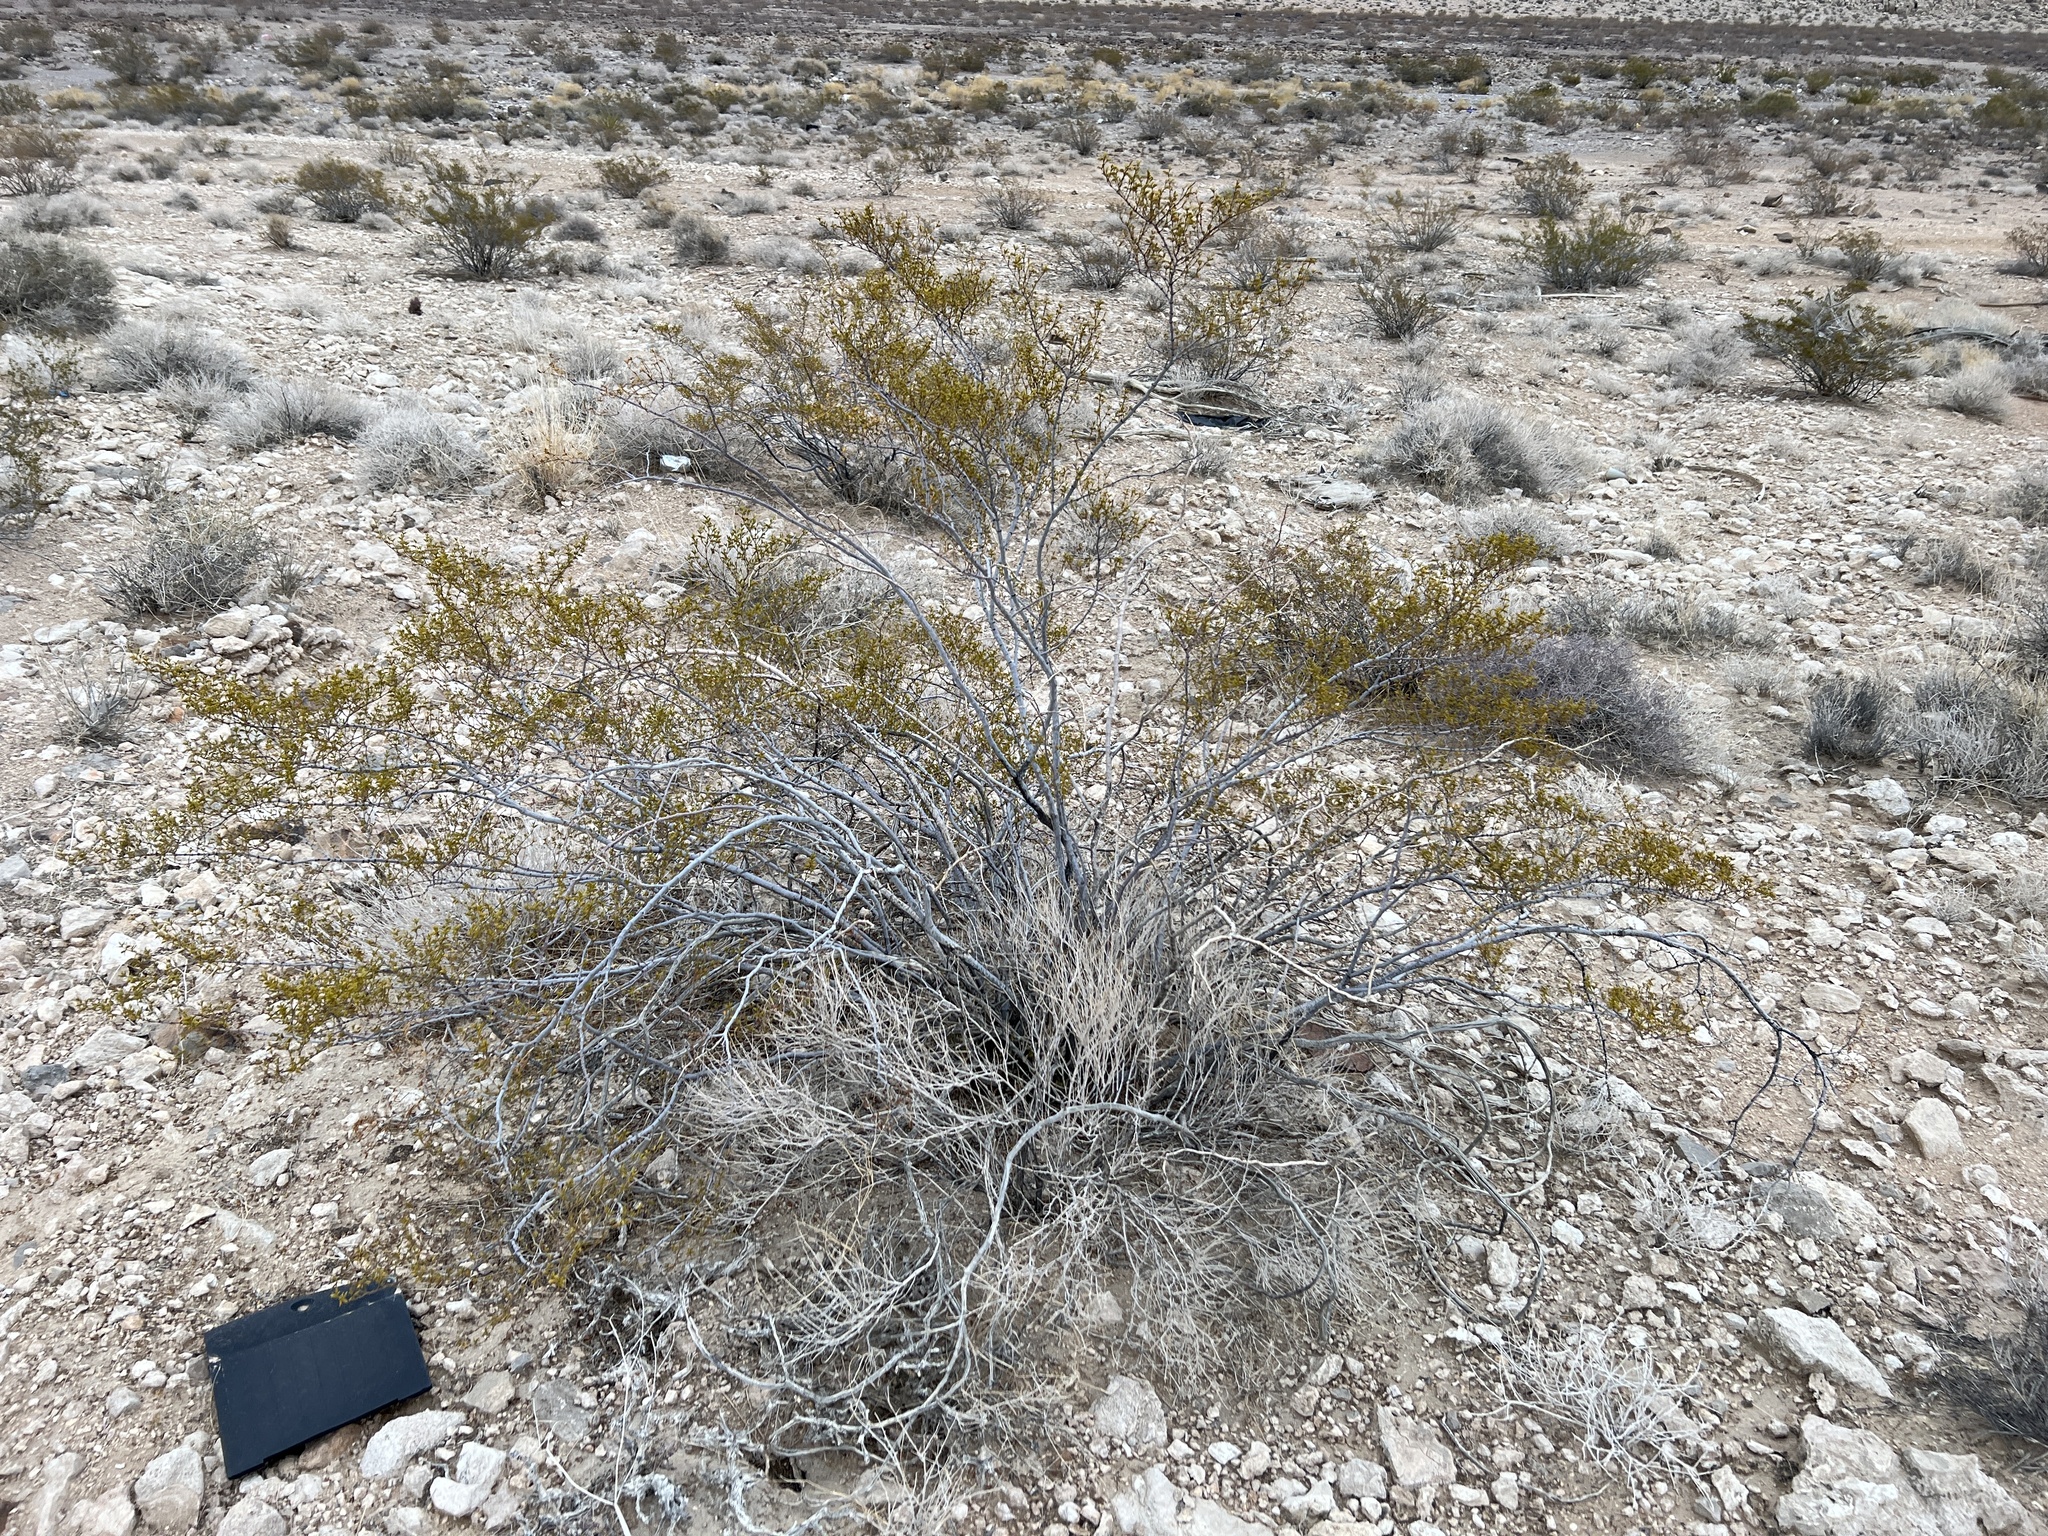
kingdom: Plantae
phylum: Tracheophyta
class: Magnoliopsida
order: Zygophyllales
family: Zygophyllaceae
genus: Larrea
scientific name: Larrea tridentata
